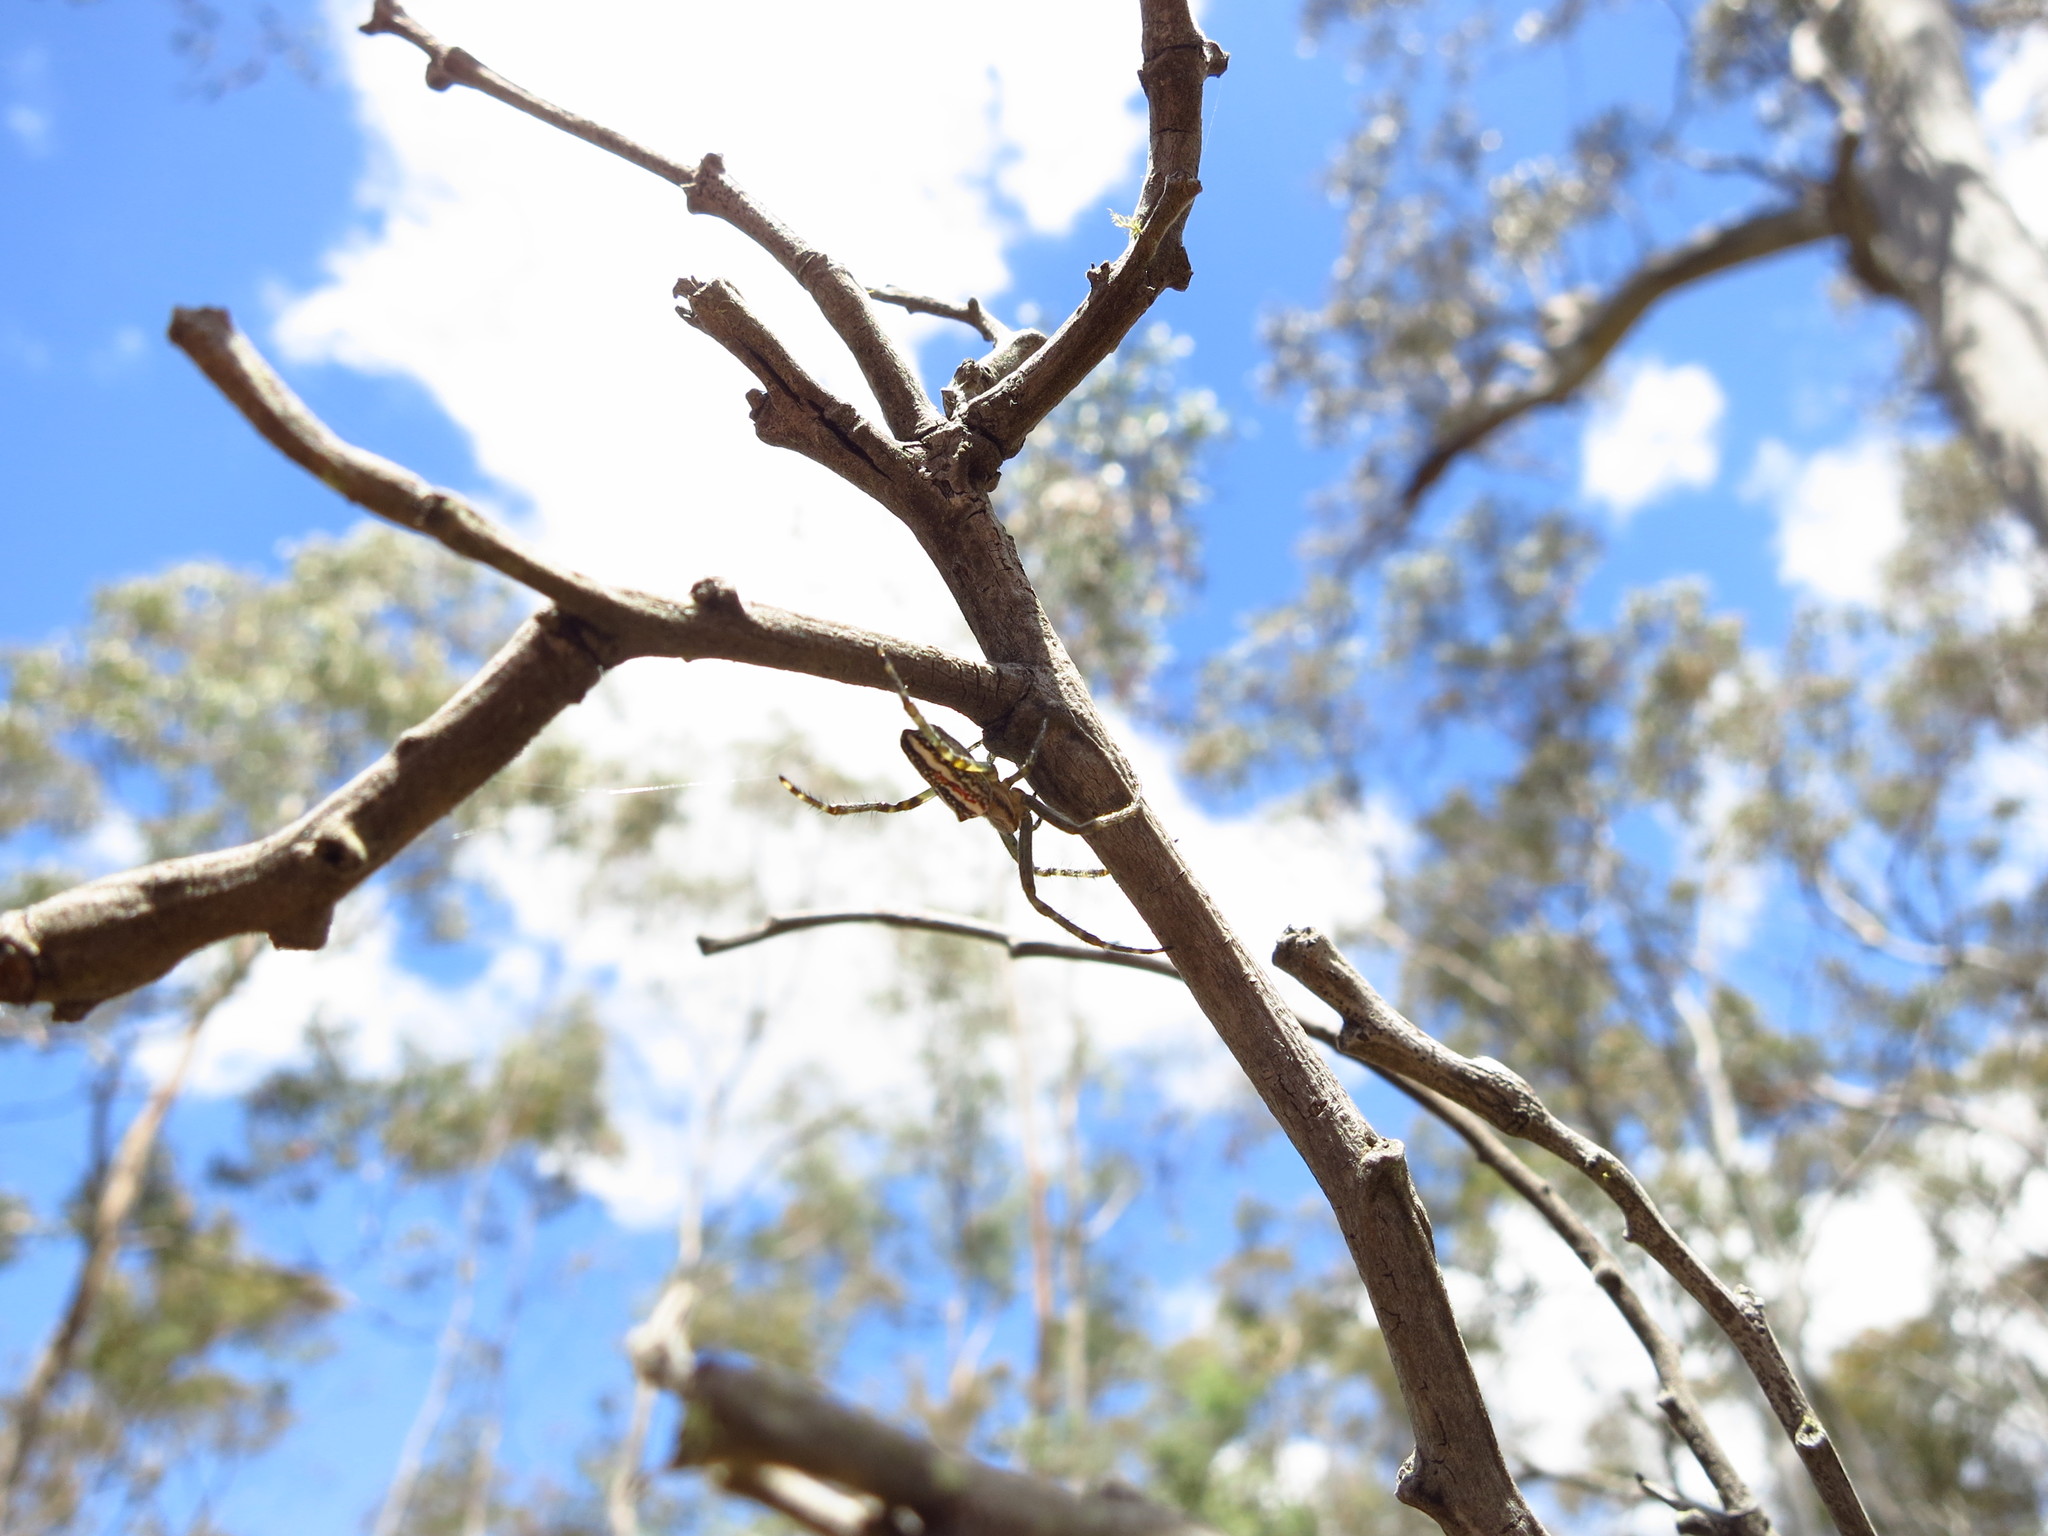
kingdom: Animalia
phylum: Arthropoda
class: Arachnida
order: Araneae
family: Araneidae
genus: Plebs
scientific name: Plebs bradleyi
